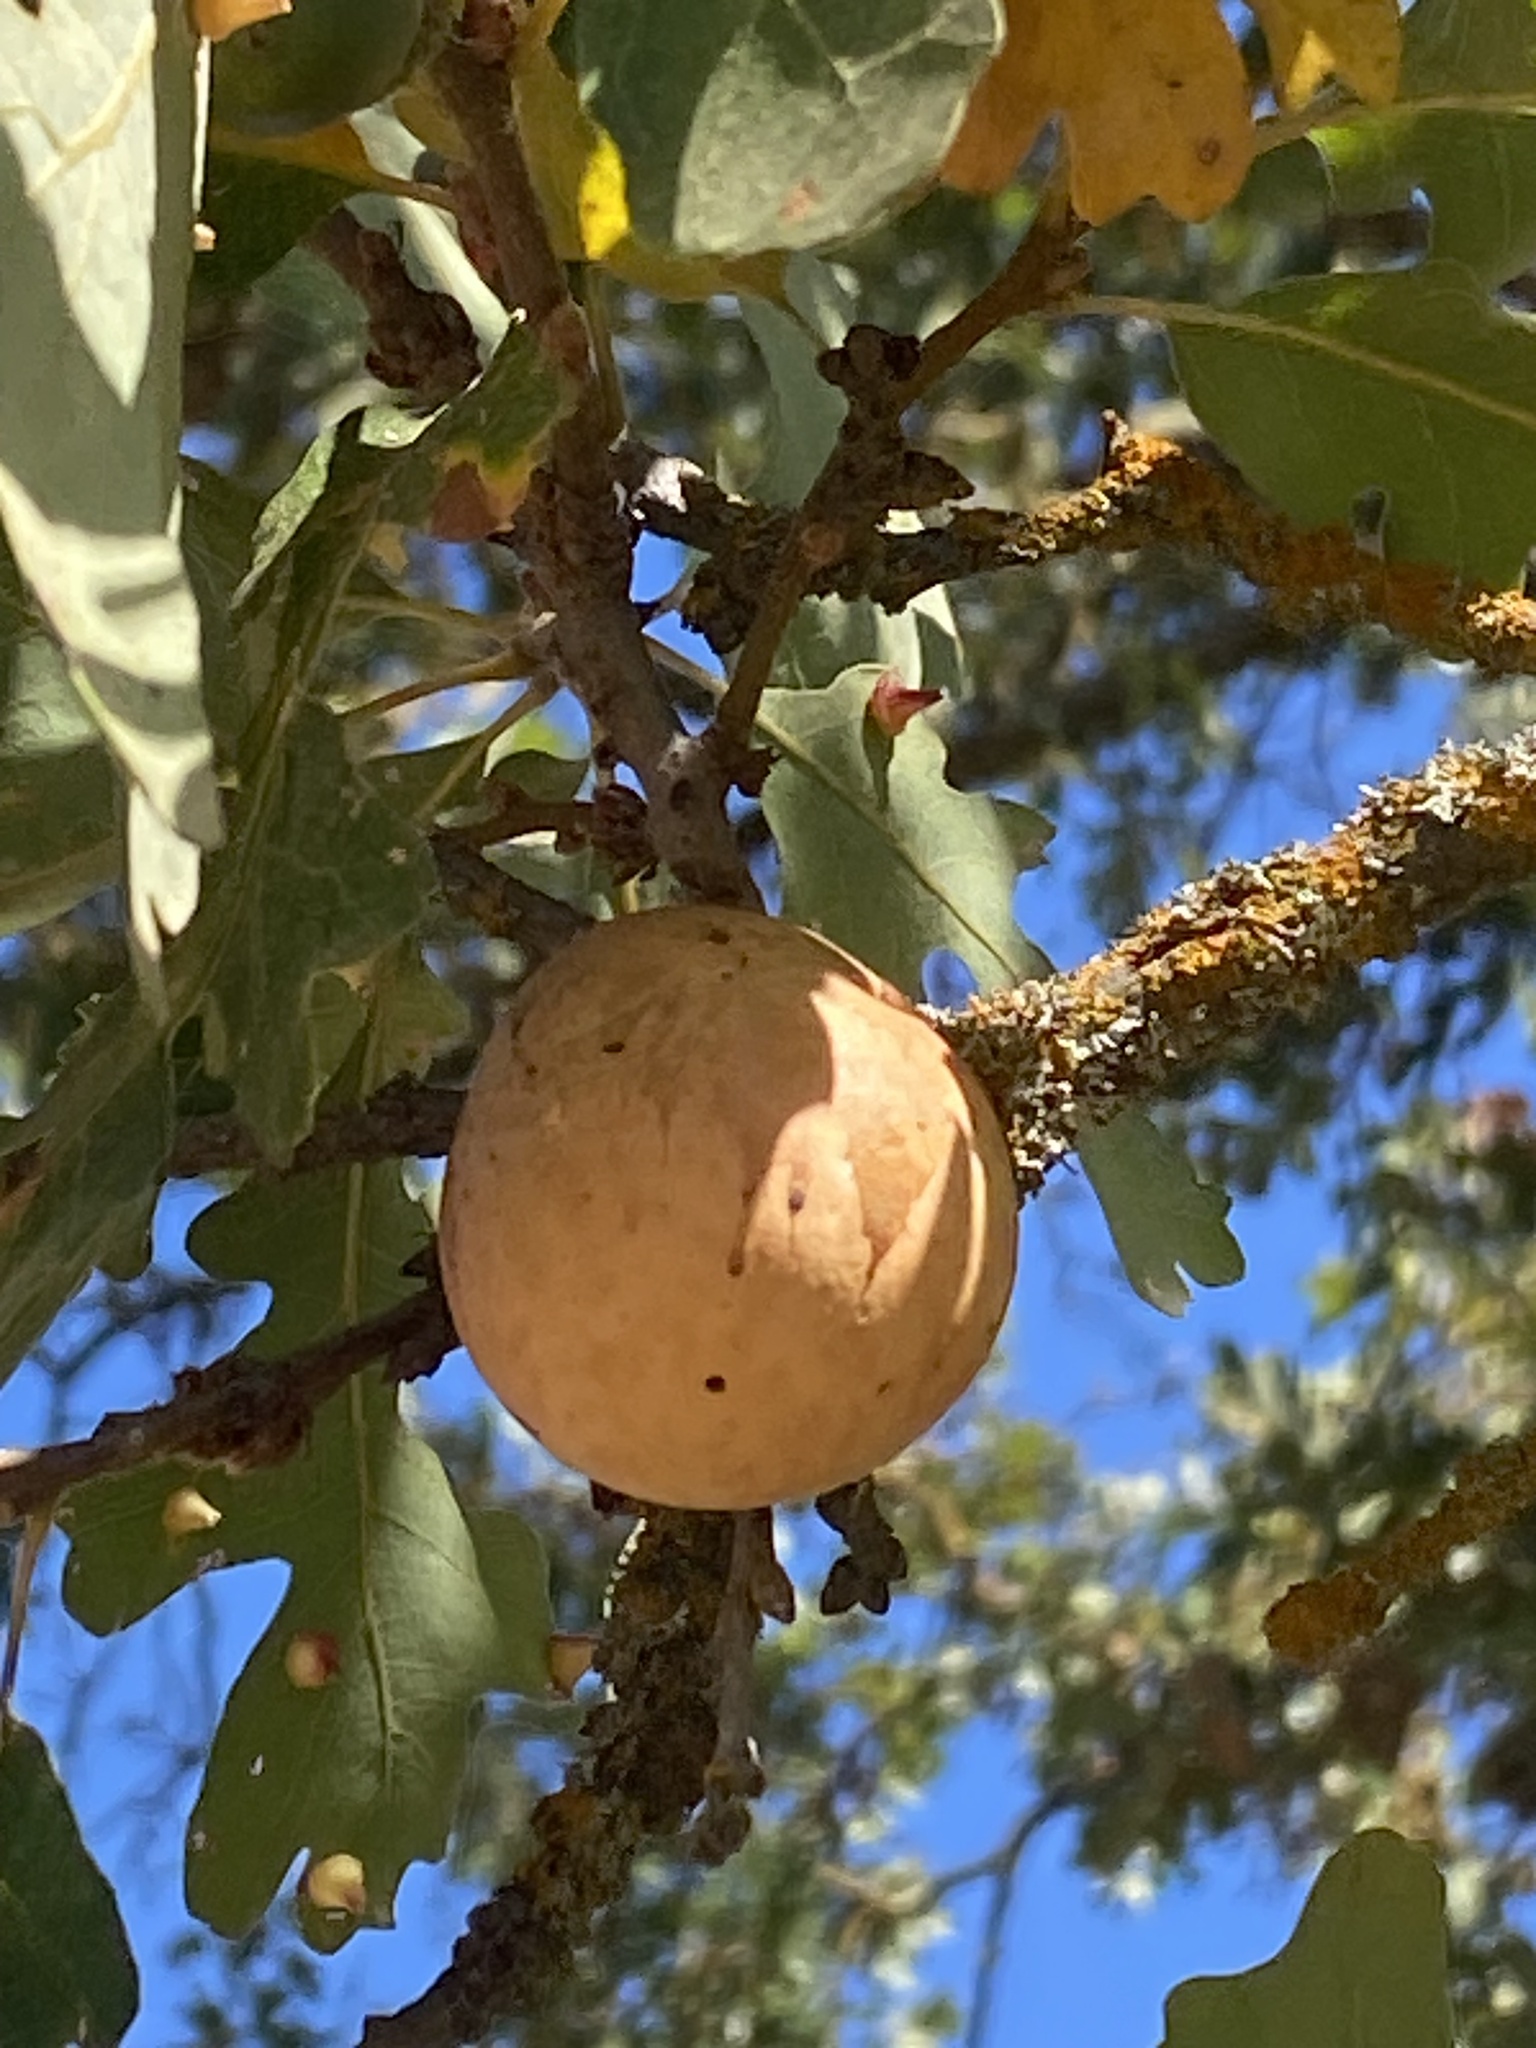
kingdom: Animalia
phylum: Arthropoda
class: Insecta
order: Hymenoptera
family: Cynipidae
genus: Andricus
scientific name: Andricus quercuscalifornicus
